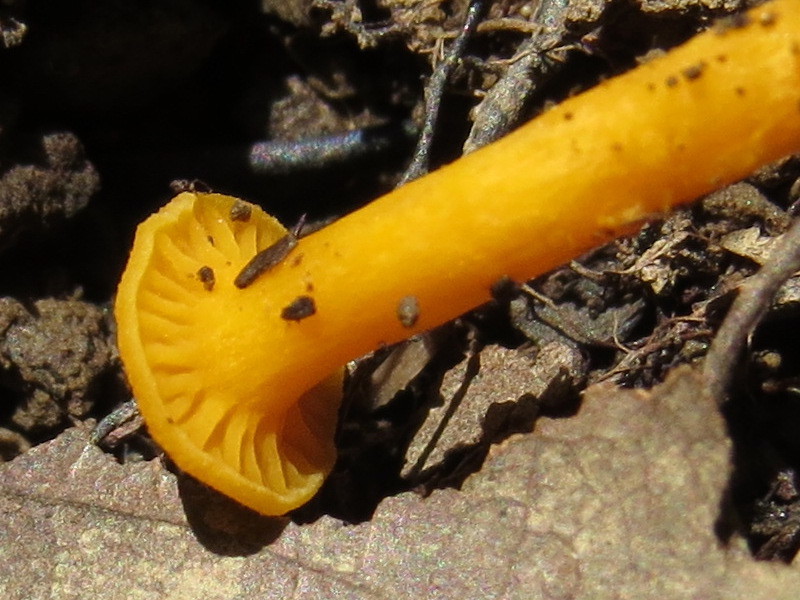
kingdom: Fungi
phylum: Basidiomycota
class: Agaricomycetes
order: Cantharellales
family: Hydnaceae
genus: Cantharellus
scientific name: Cantharellus minor
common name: Small chanterelle
